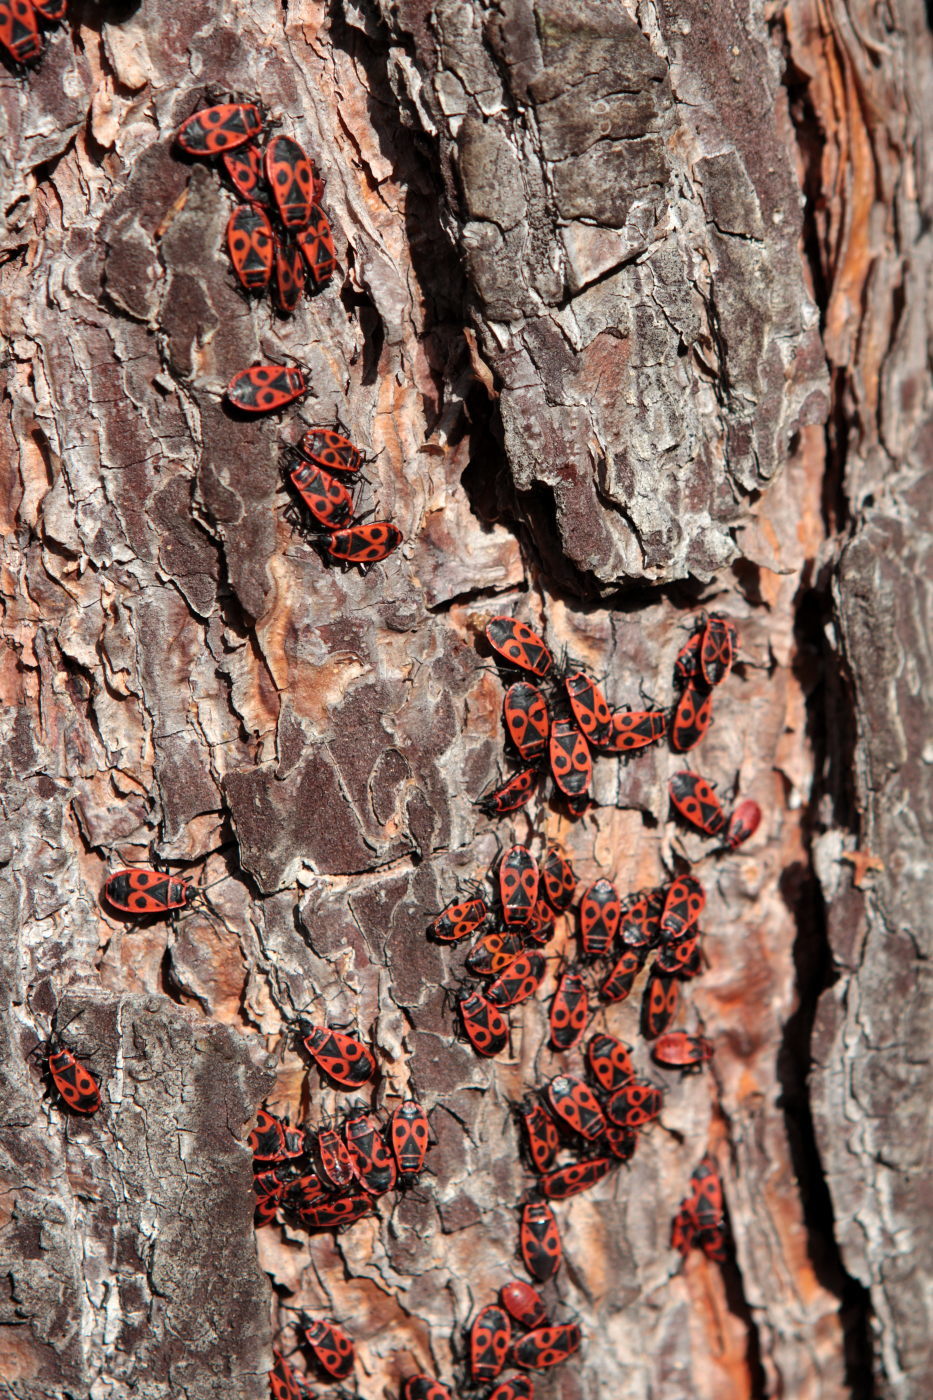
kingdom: Animalia
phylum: Arthropoda
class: Insecta
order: Hemiptera
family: Pyrrhocoridae
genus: Pyrrhocoris
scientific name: Pyrrhocoris apterus
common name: Firebug
